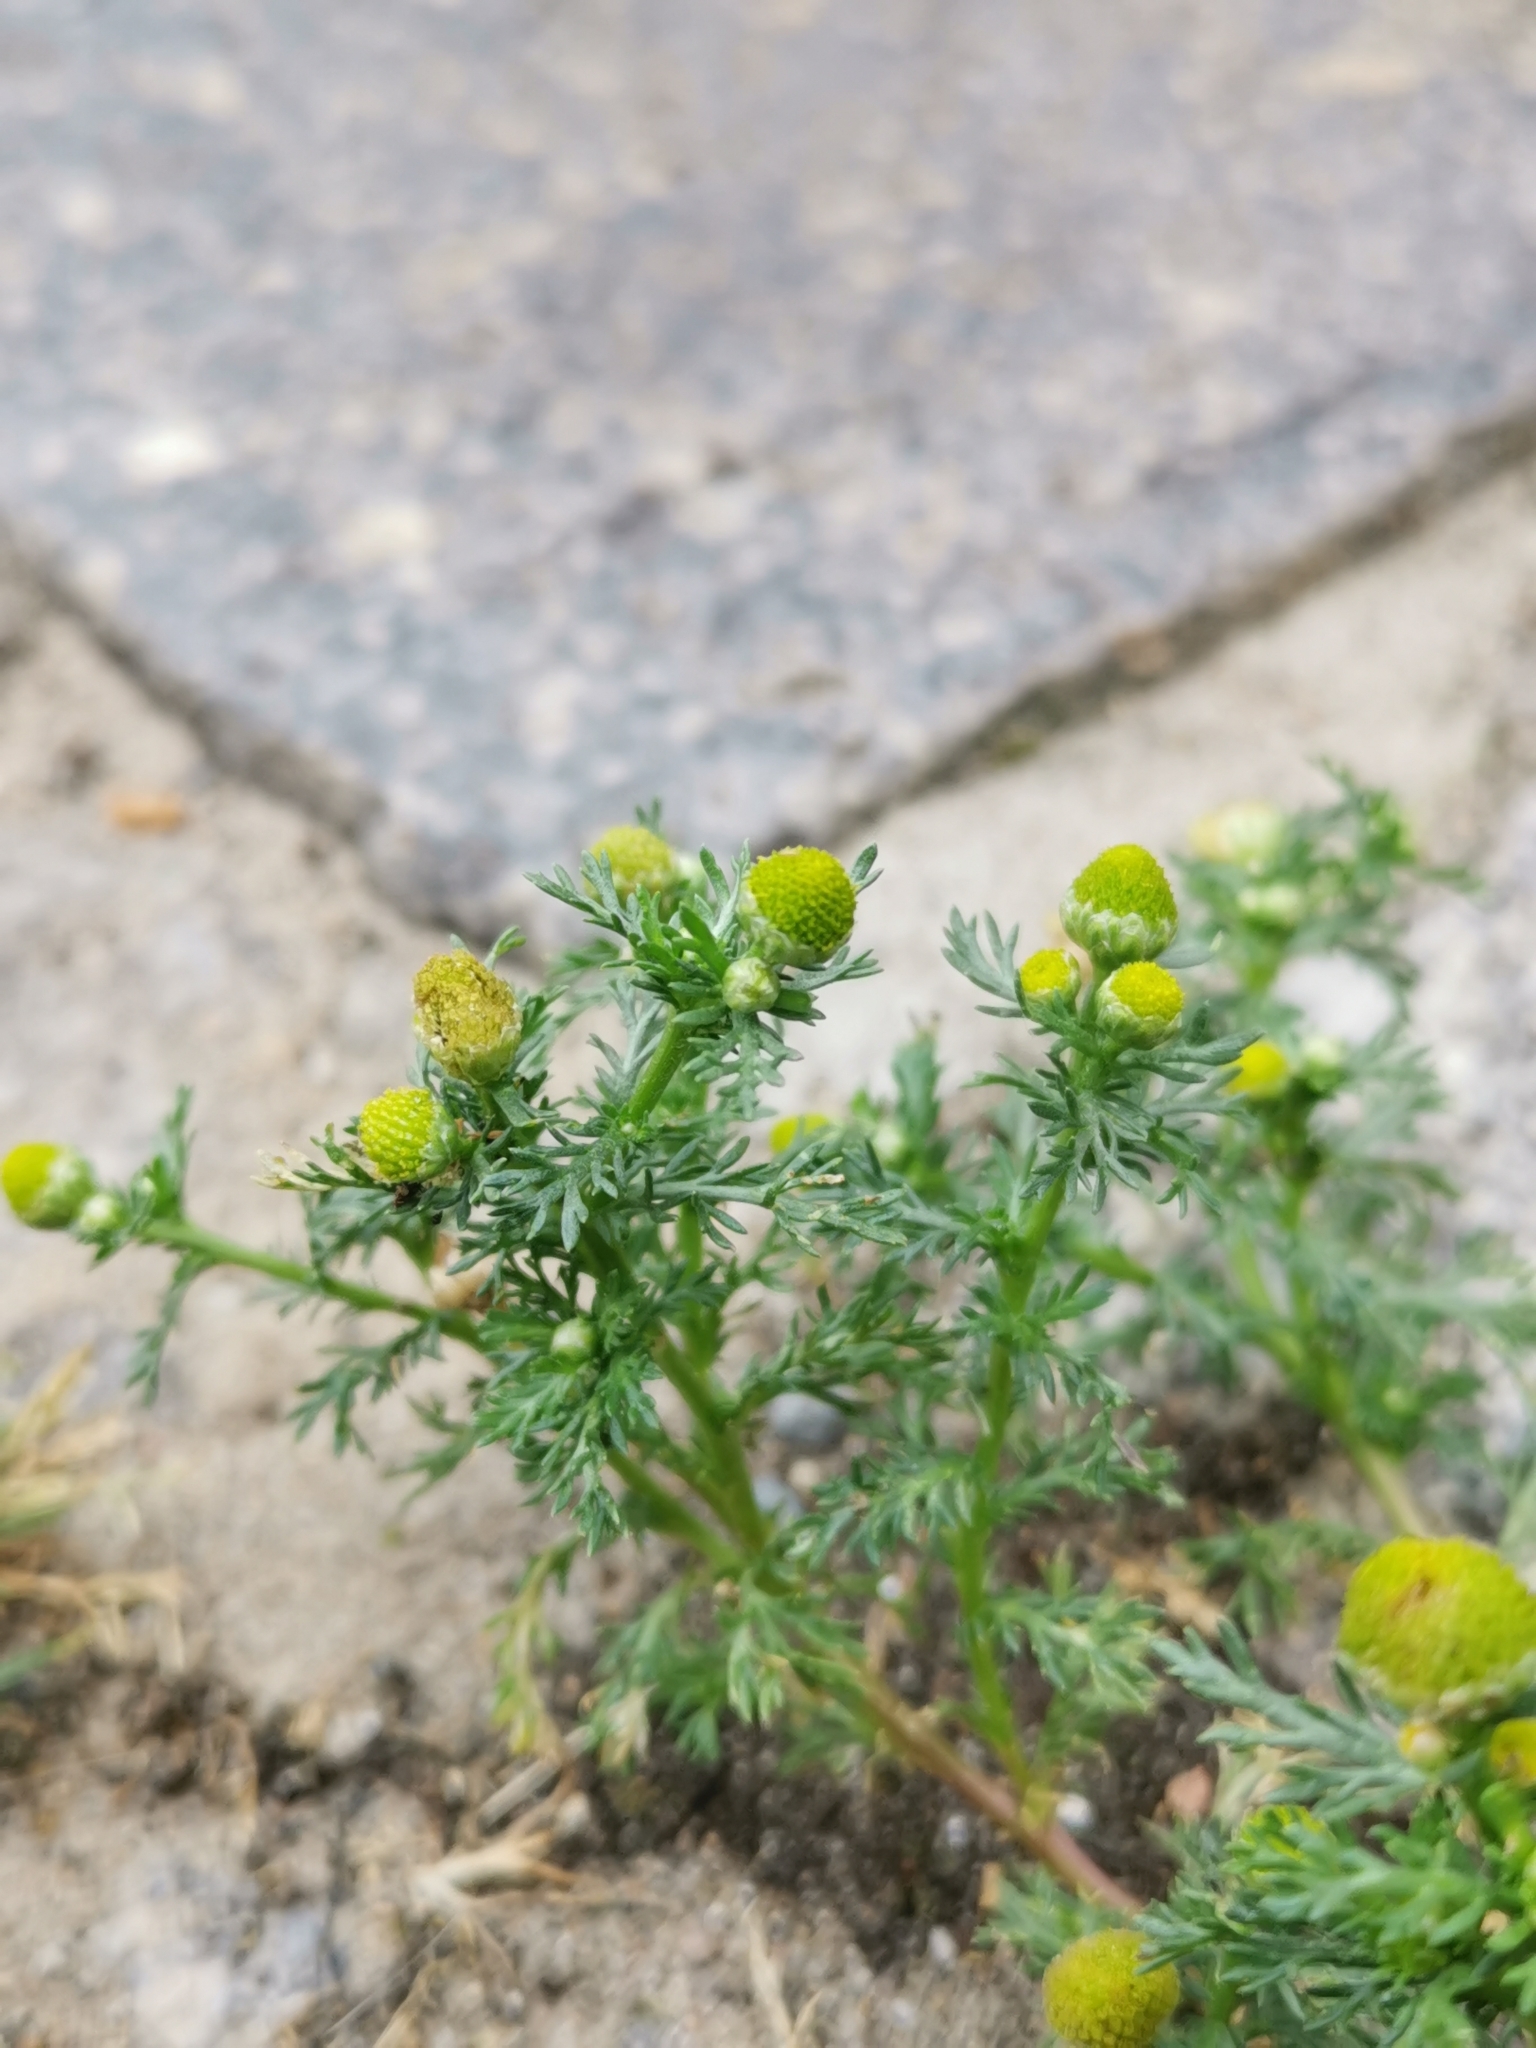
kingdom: Plantae
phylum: Tracheophyta
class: Magnoliopsida
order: Asterales
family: Asteraceae
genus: Matricaria
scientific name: Matricaria discoidea
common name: Disc mayweed
